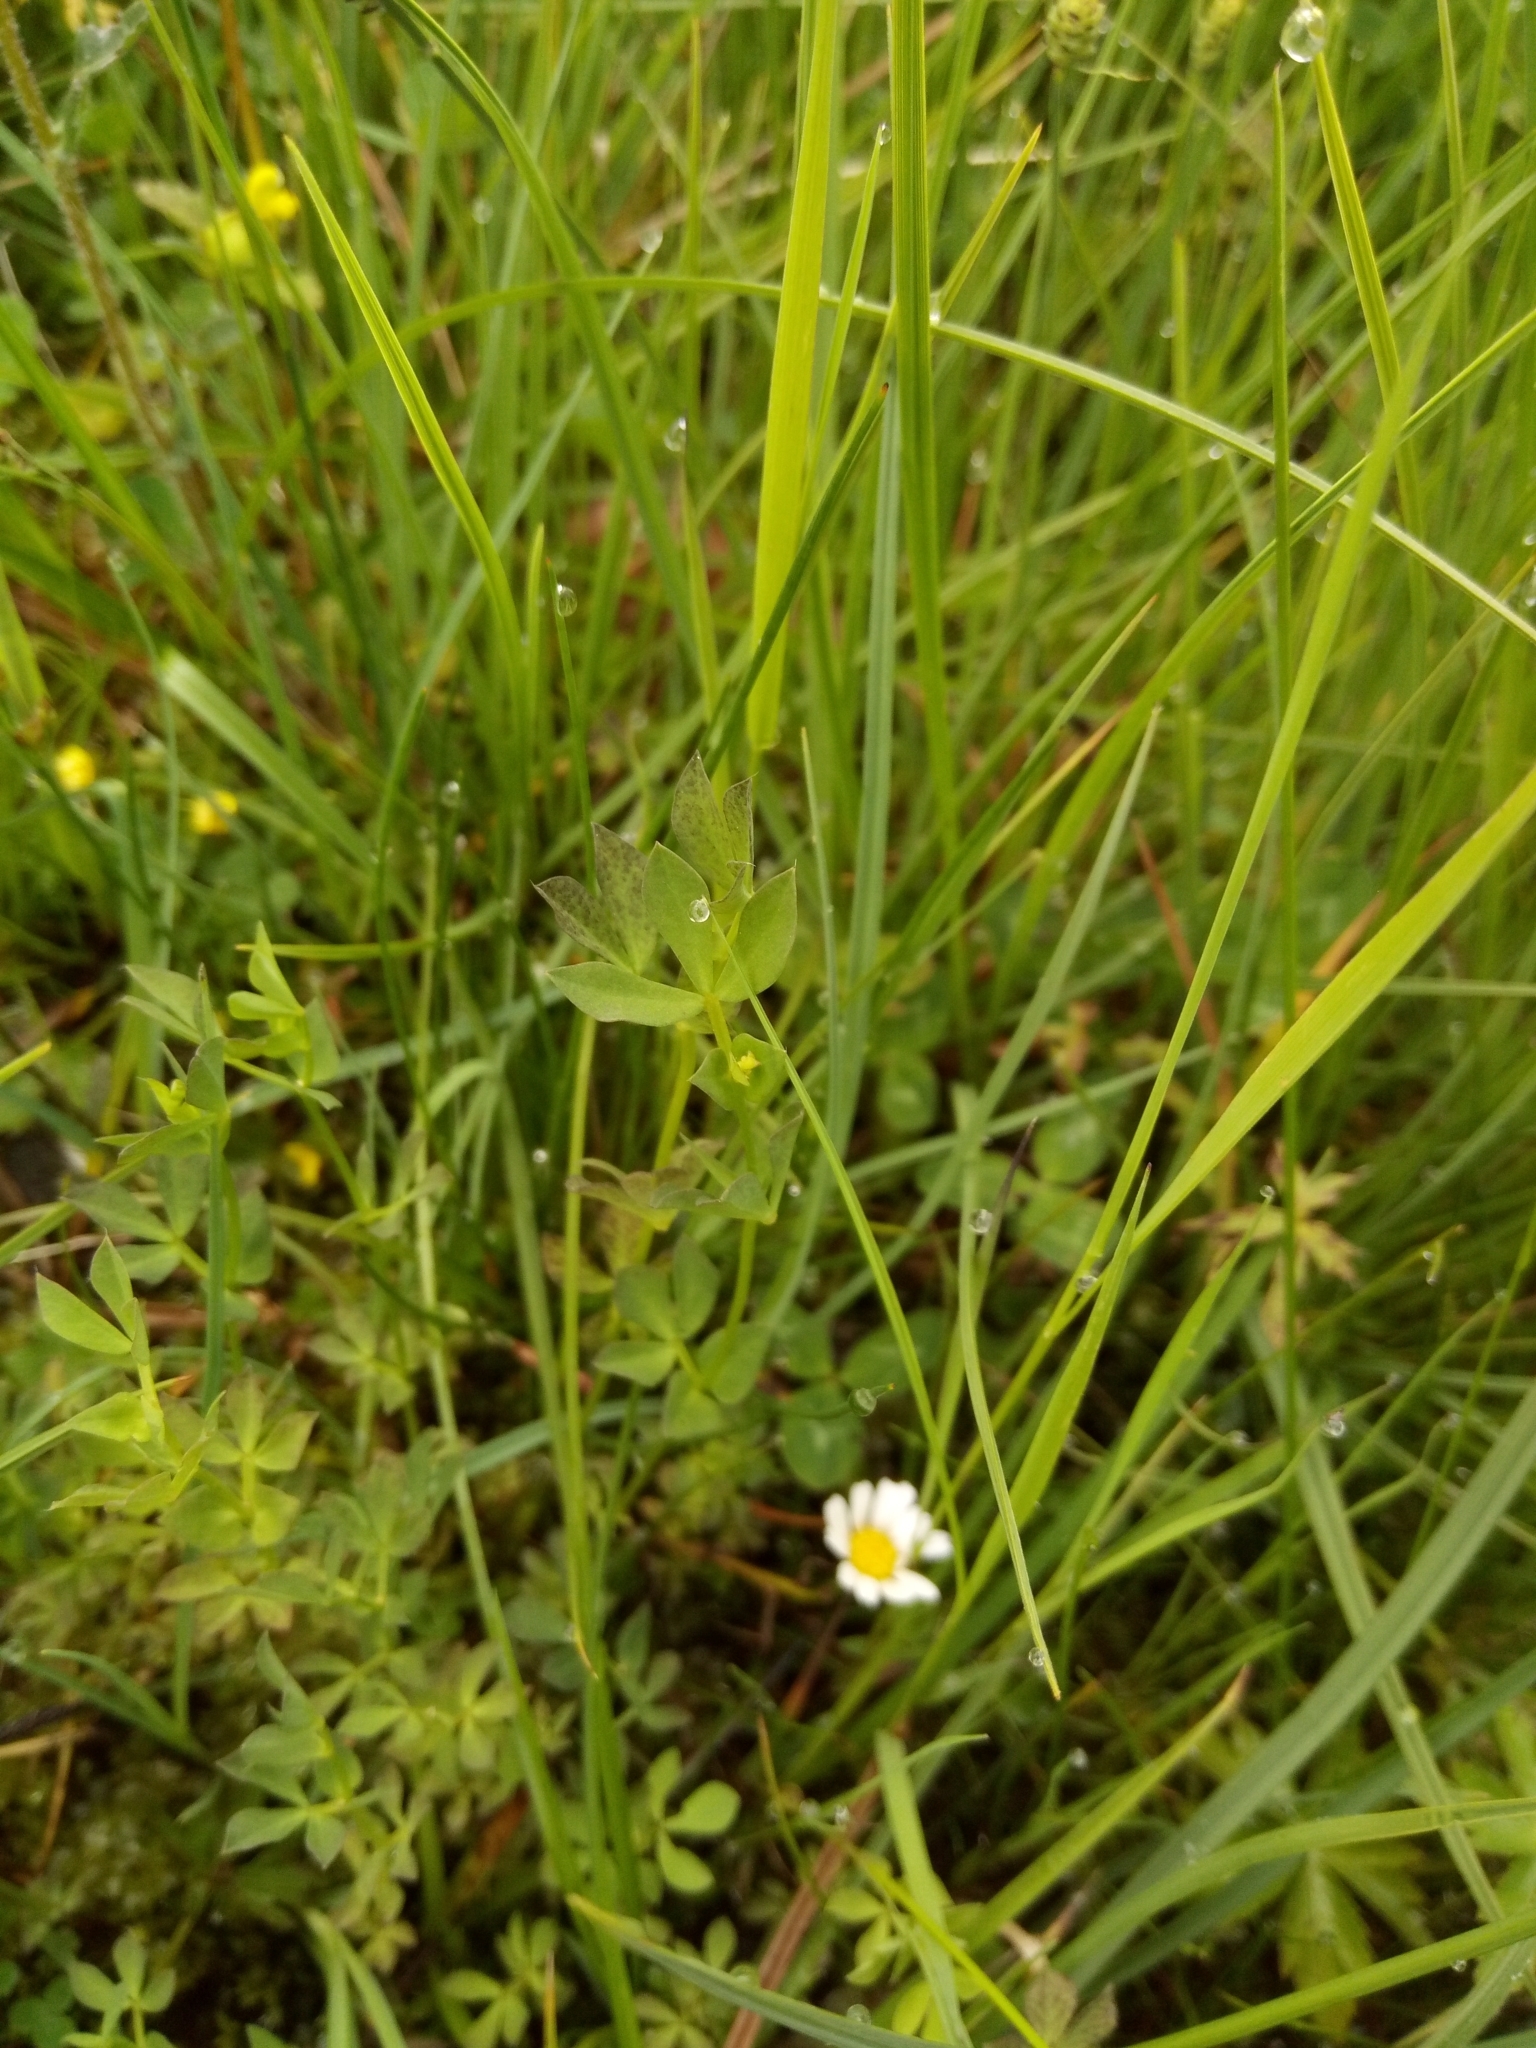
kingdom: Plantae
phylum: Tracheophyta
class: Magnoliopsida
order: Fabales
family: Fabaceae
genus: Lotus
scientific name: Lotus corniculatus
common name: Common bird's-foot-trefoil
